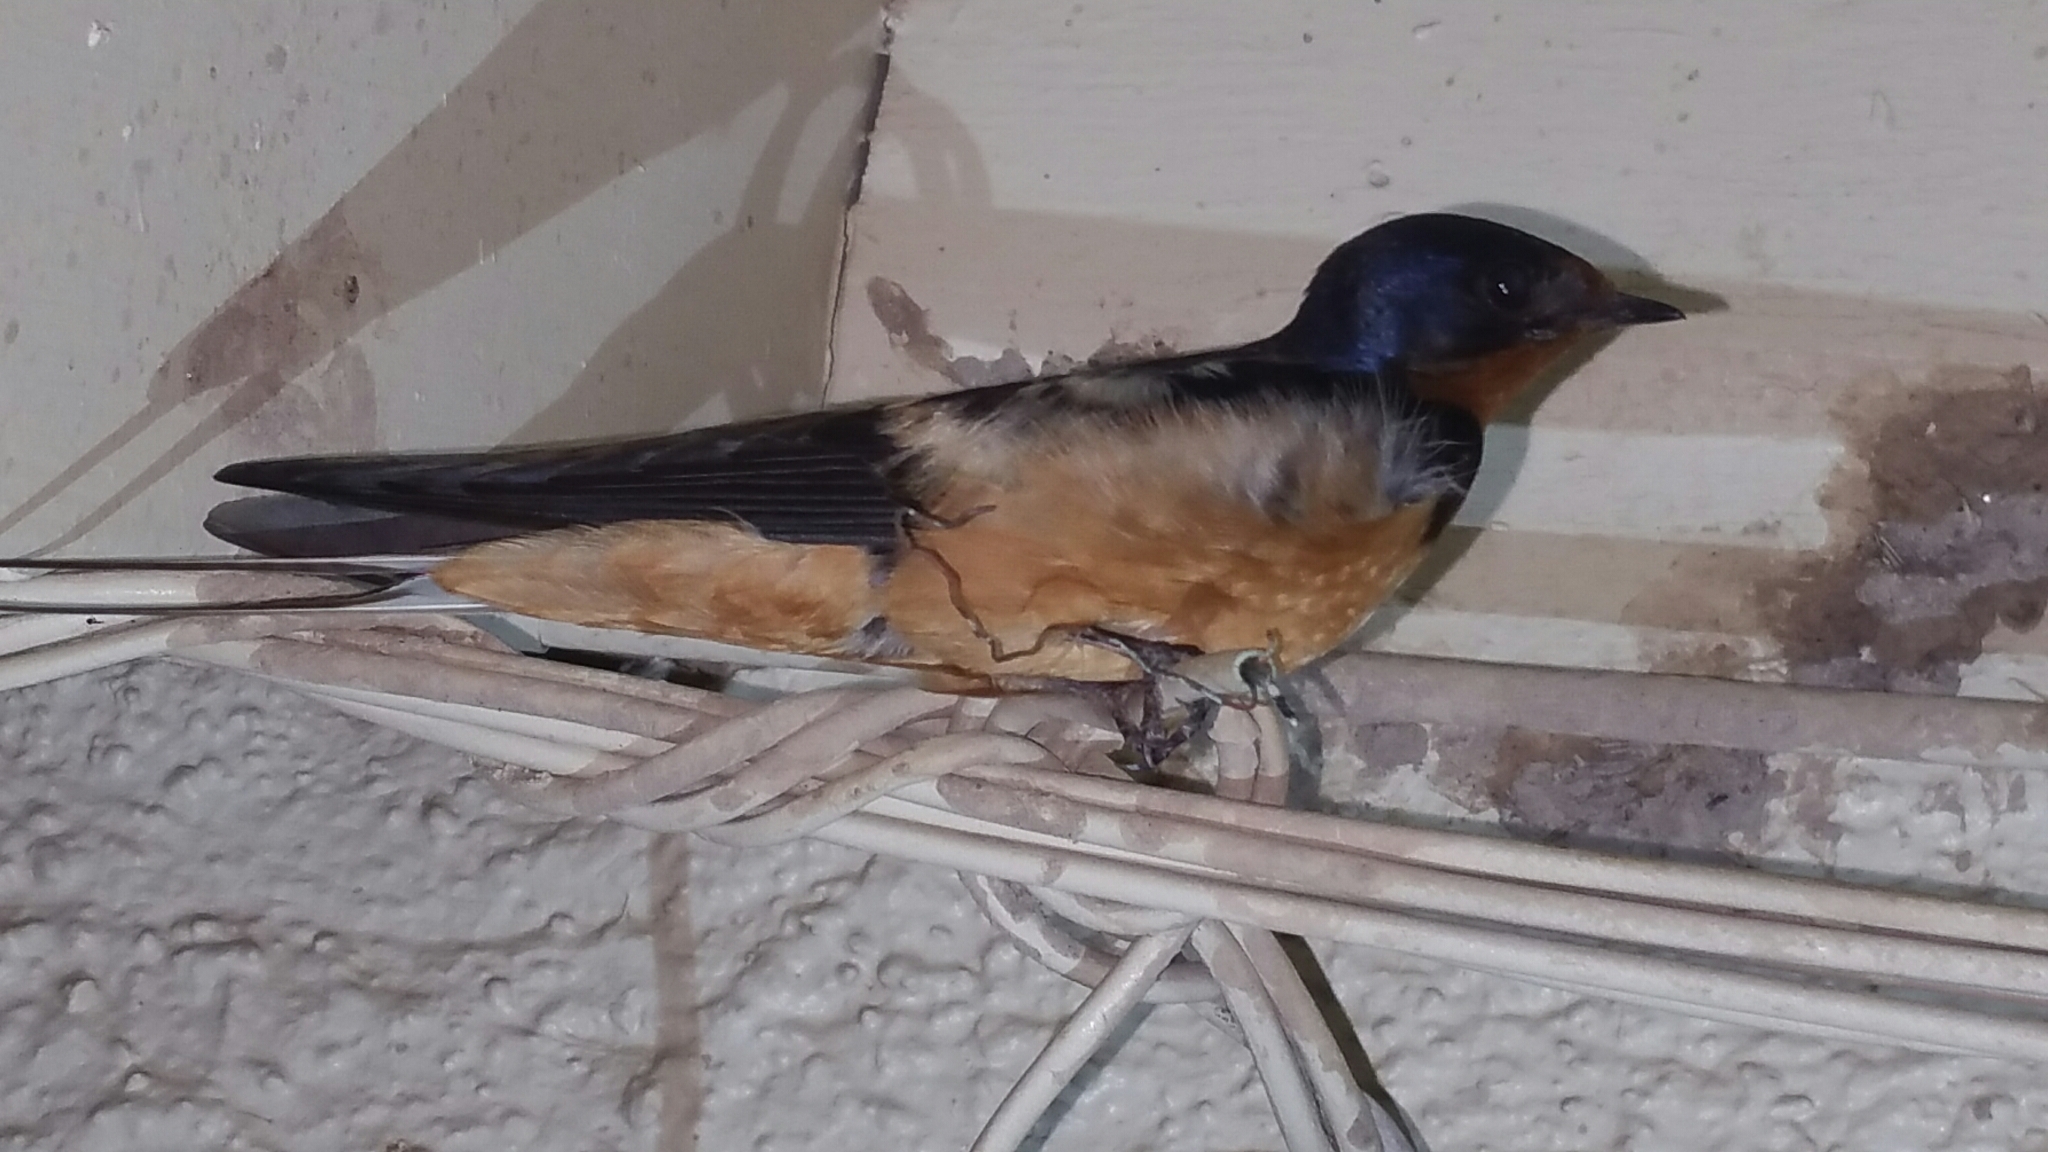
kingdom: Animalia
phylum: Chordata
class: Aves
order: Passeriformes
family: Hirundinidae
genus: Hirundo
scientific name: Hirundo rustica
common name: Barn swallow
